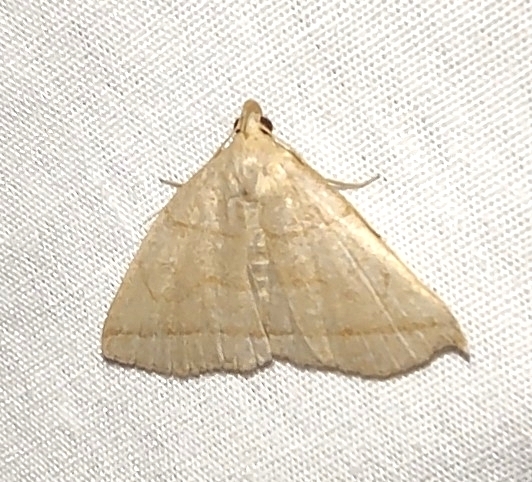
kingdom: Animalia
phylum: Arthropoda
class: Insecta
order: Lepidoptera
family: Erebidae
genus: Zanclognatha
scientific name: Zanclognatha cruralis
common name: Early fan-foot
